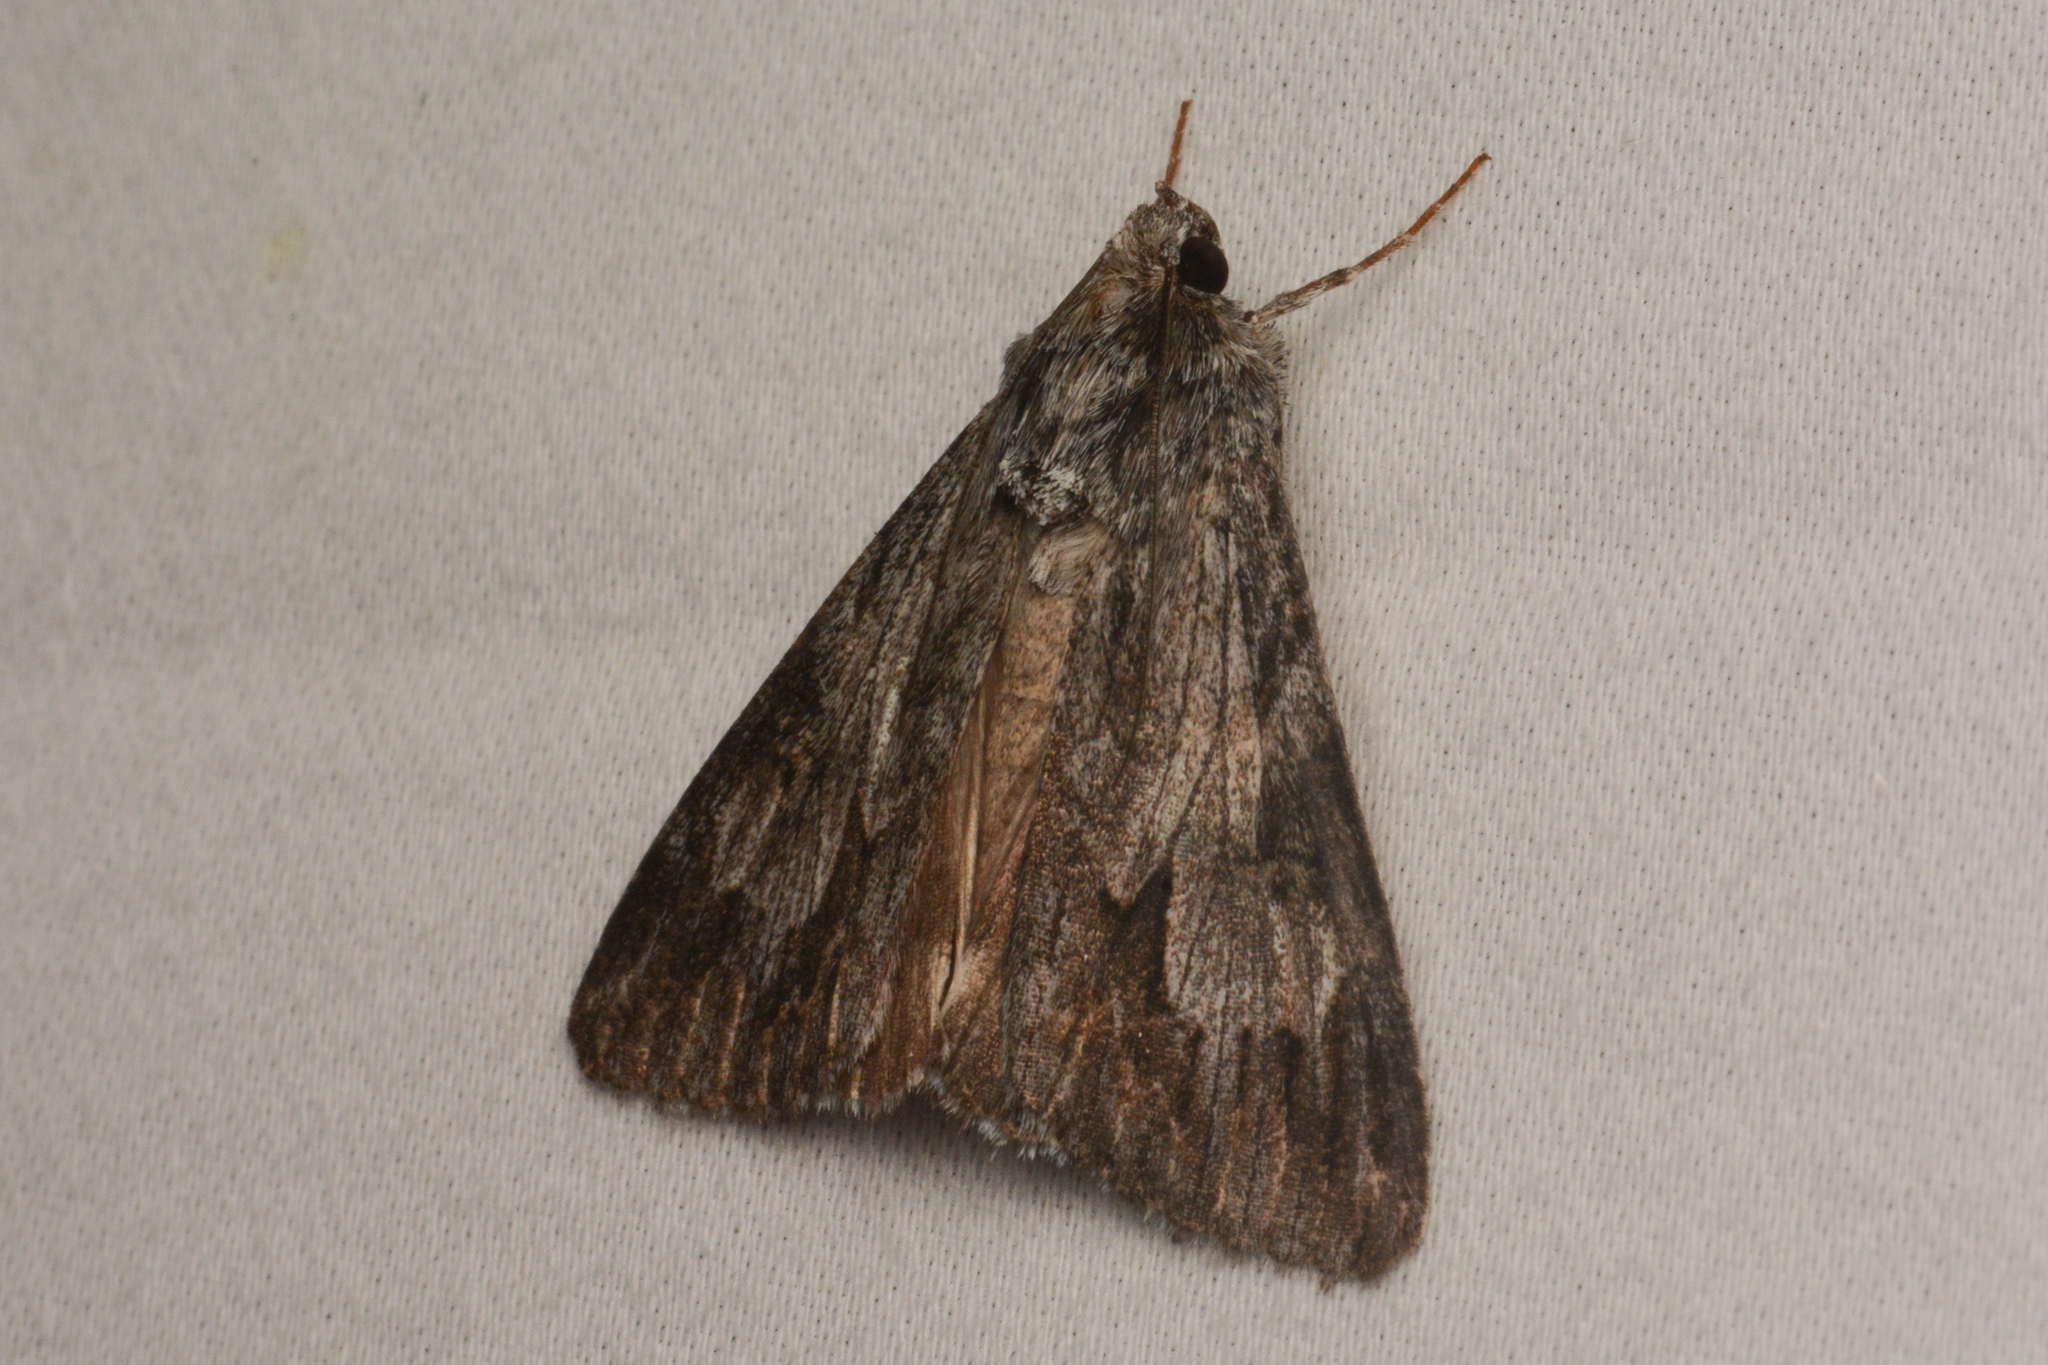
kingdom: Animalia
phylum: Arthropoda
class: Insecta
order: Lepidoptera
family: Erebidae
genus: Melipotis
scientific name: Melipotis jucunda
